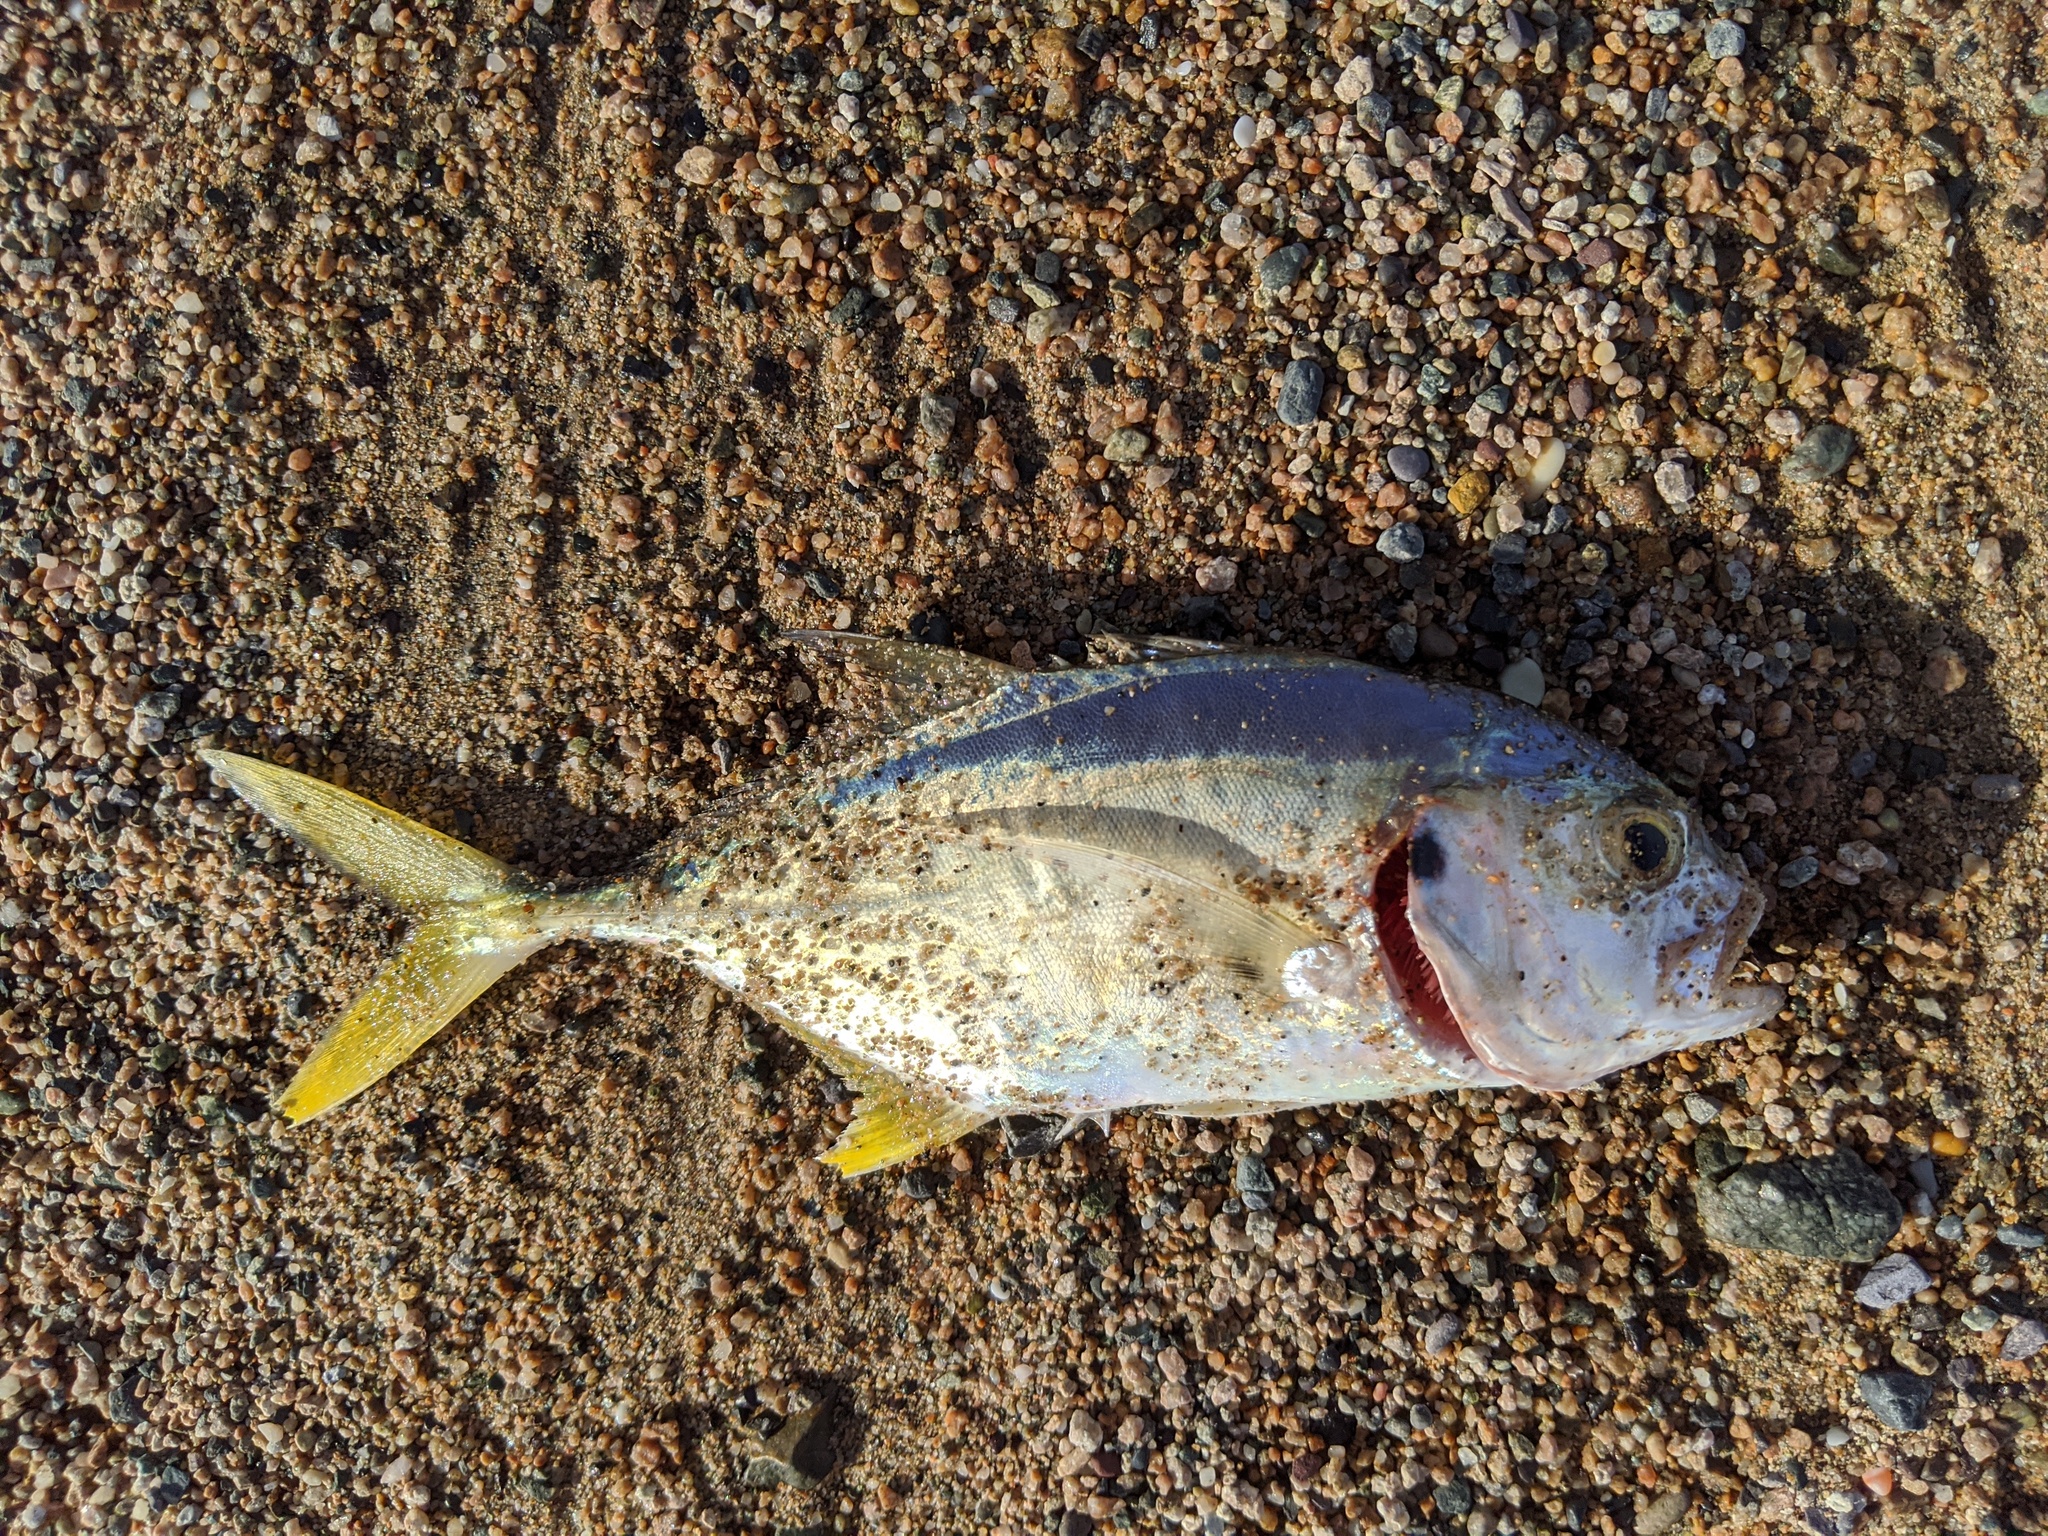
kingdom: Animalia
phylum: Chordata
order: Perciformes
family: Carangidae
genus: Caranx
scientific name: Caranx caninus
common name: Pacific crevalle jack
